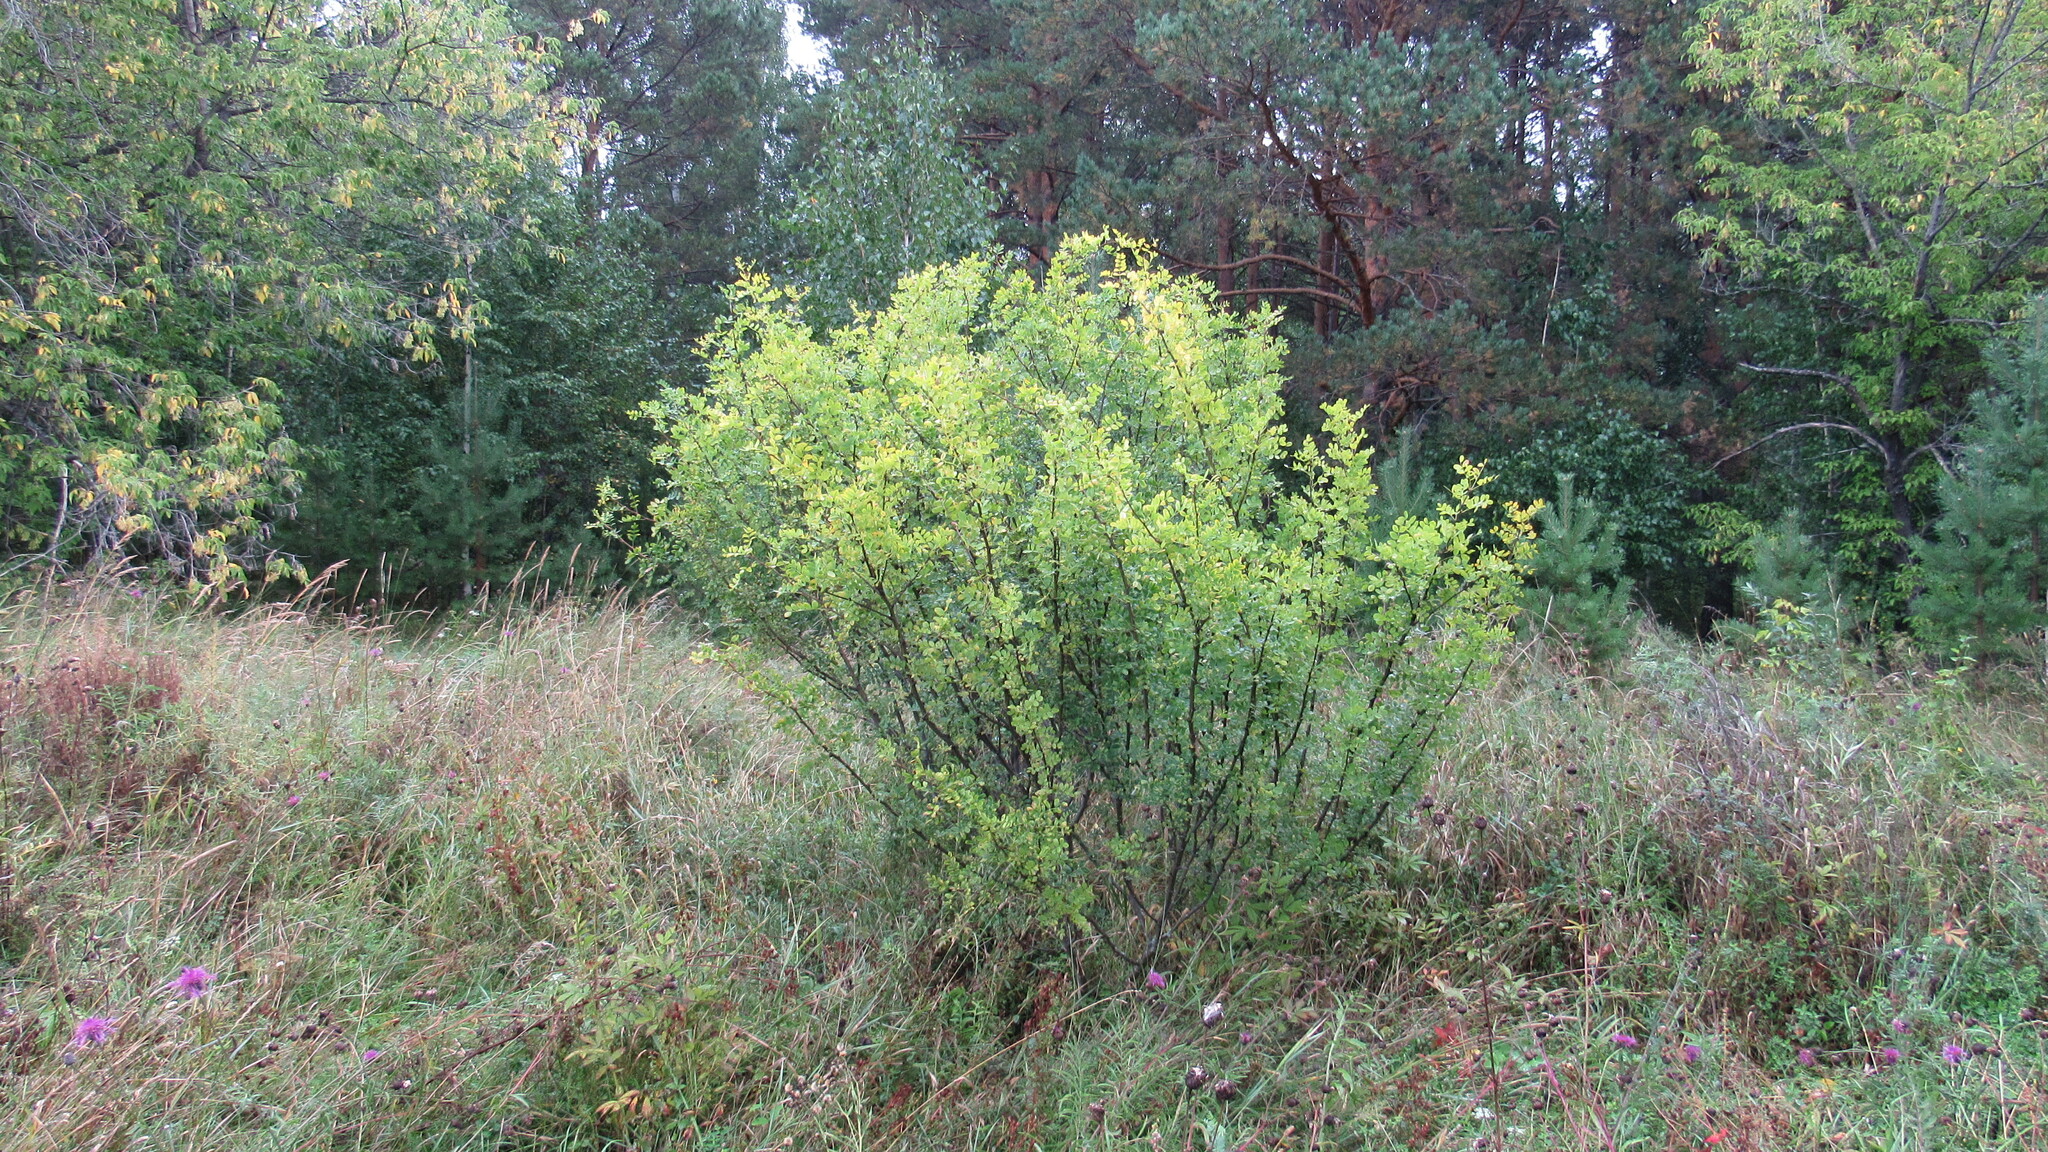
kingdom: Plantae
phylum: Tracheophyta
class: Magnoliopsida
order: Fabales
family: Fabaceae
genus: Caragana
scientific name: Caragana arborescens
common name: Siberian peashrub
